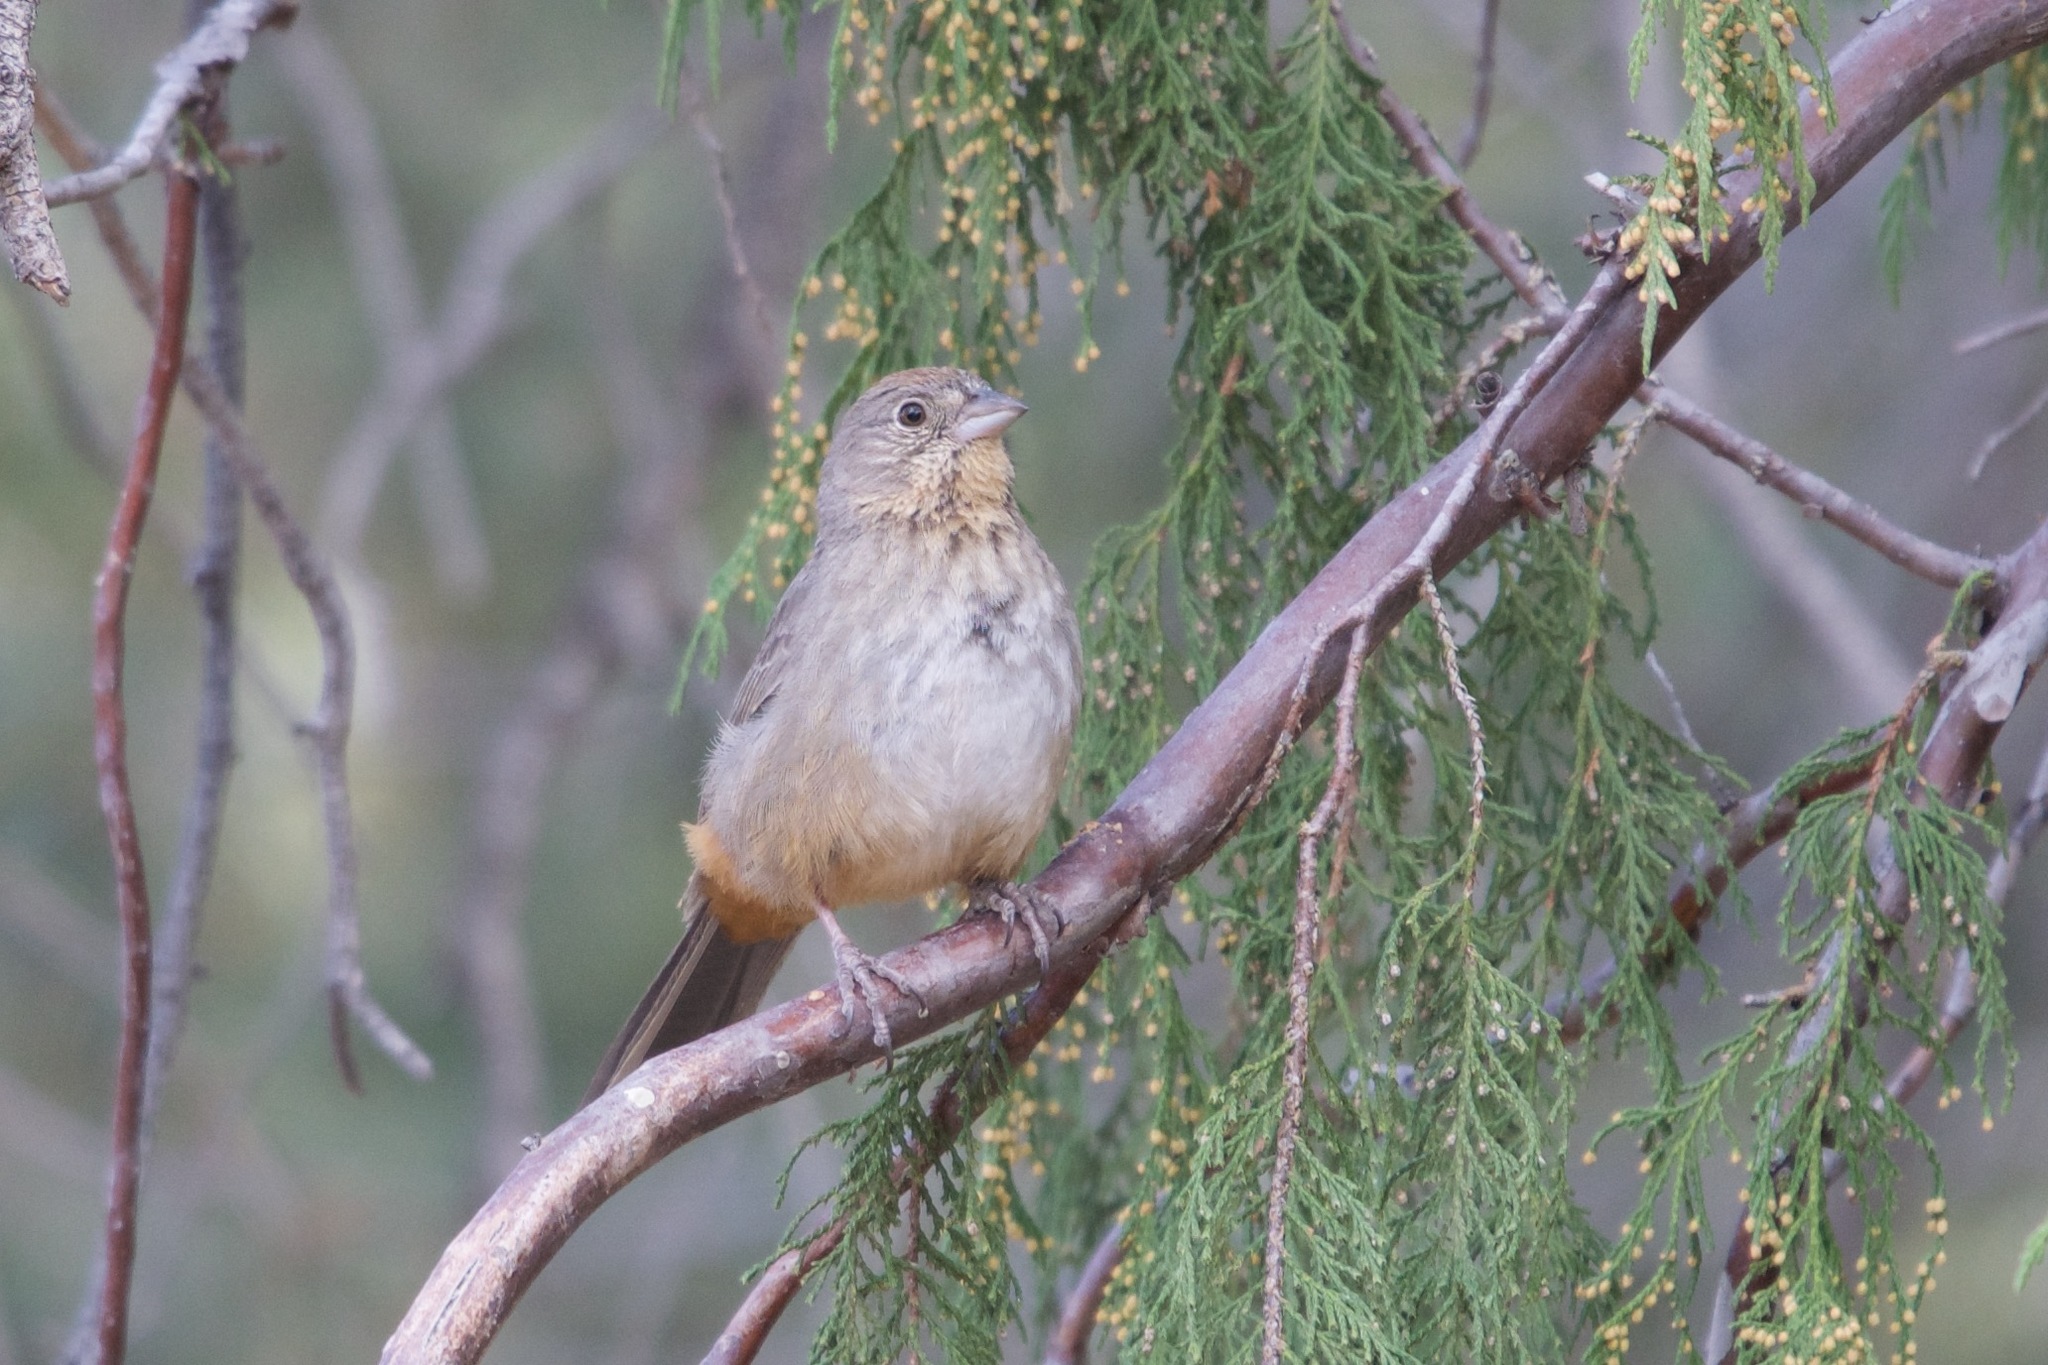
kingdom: Animalia
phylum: Chordata
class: Aves
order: Passeriformes
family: Passerellidae
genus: Melozone
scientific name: Melozone fusca
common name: Canyon towhee
